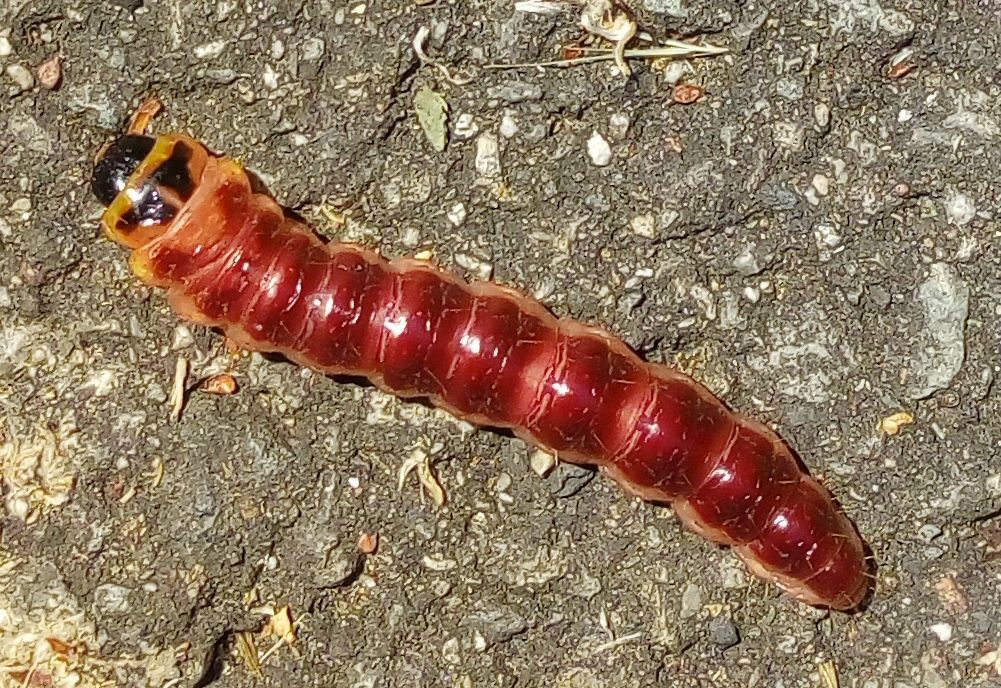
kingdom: Animalia
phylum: Arthropoda
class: Insecta
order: Lepidoptera
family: Cossidae
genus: Cossus
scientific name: Cossus cossus
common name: Goat moth
